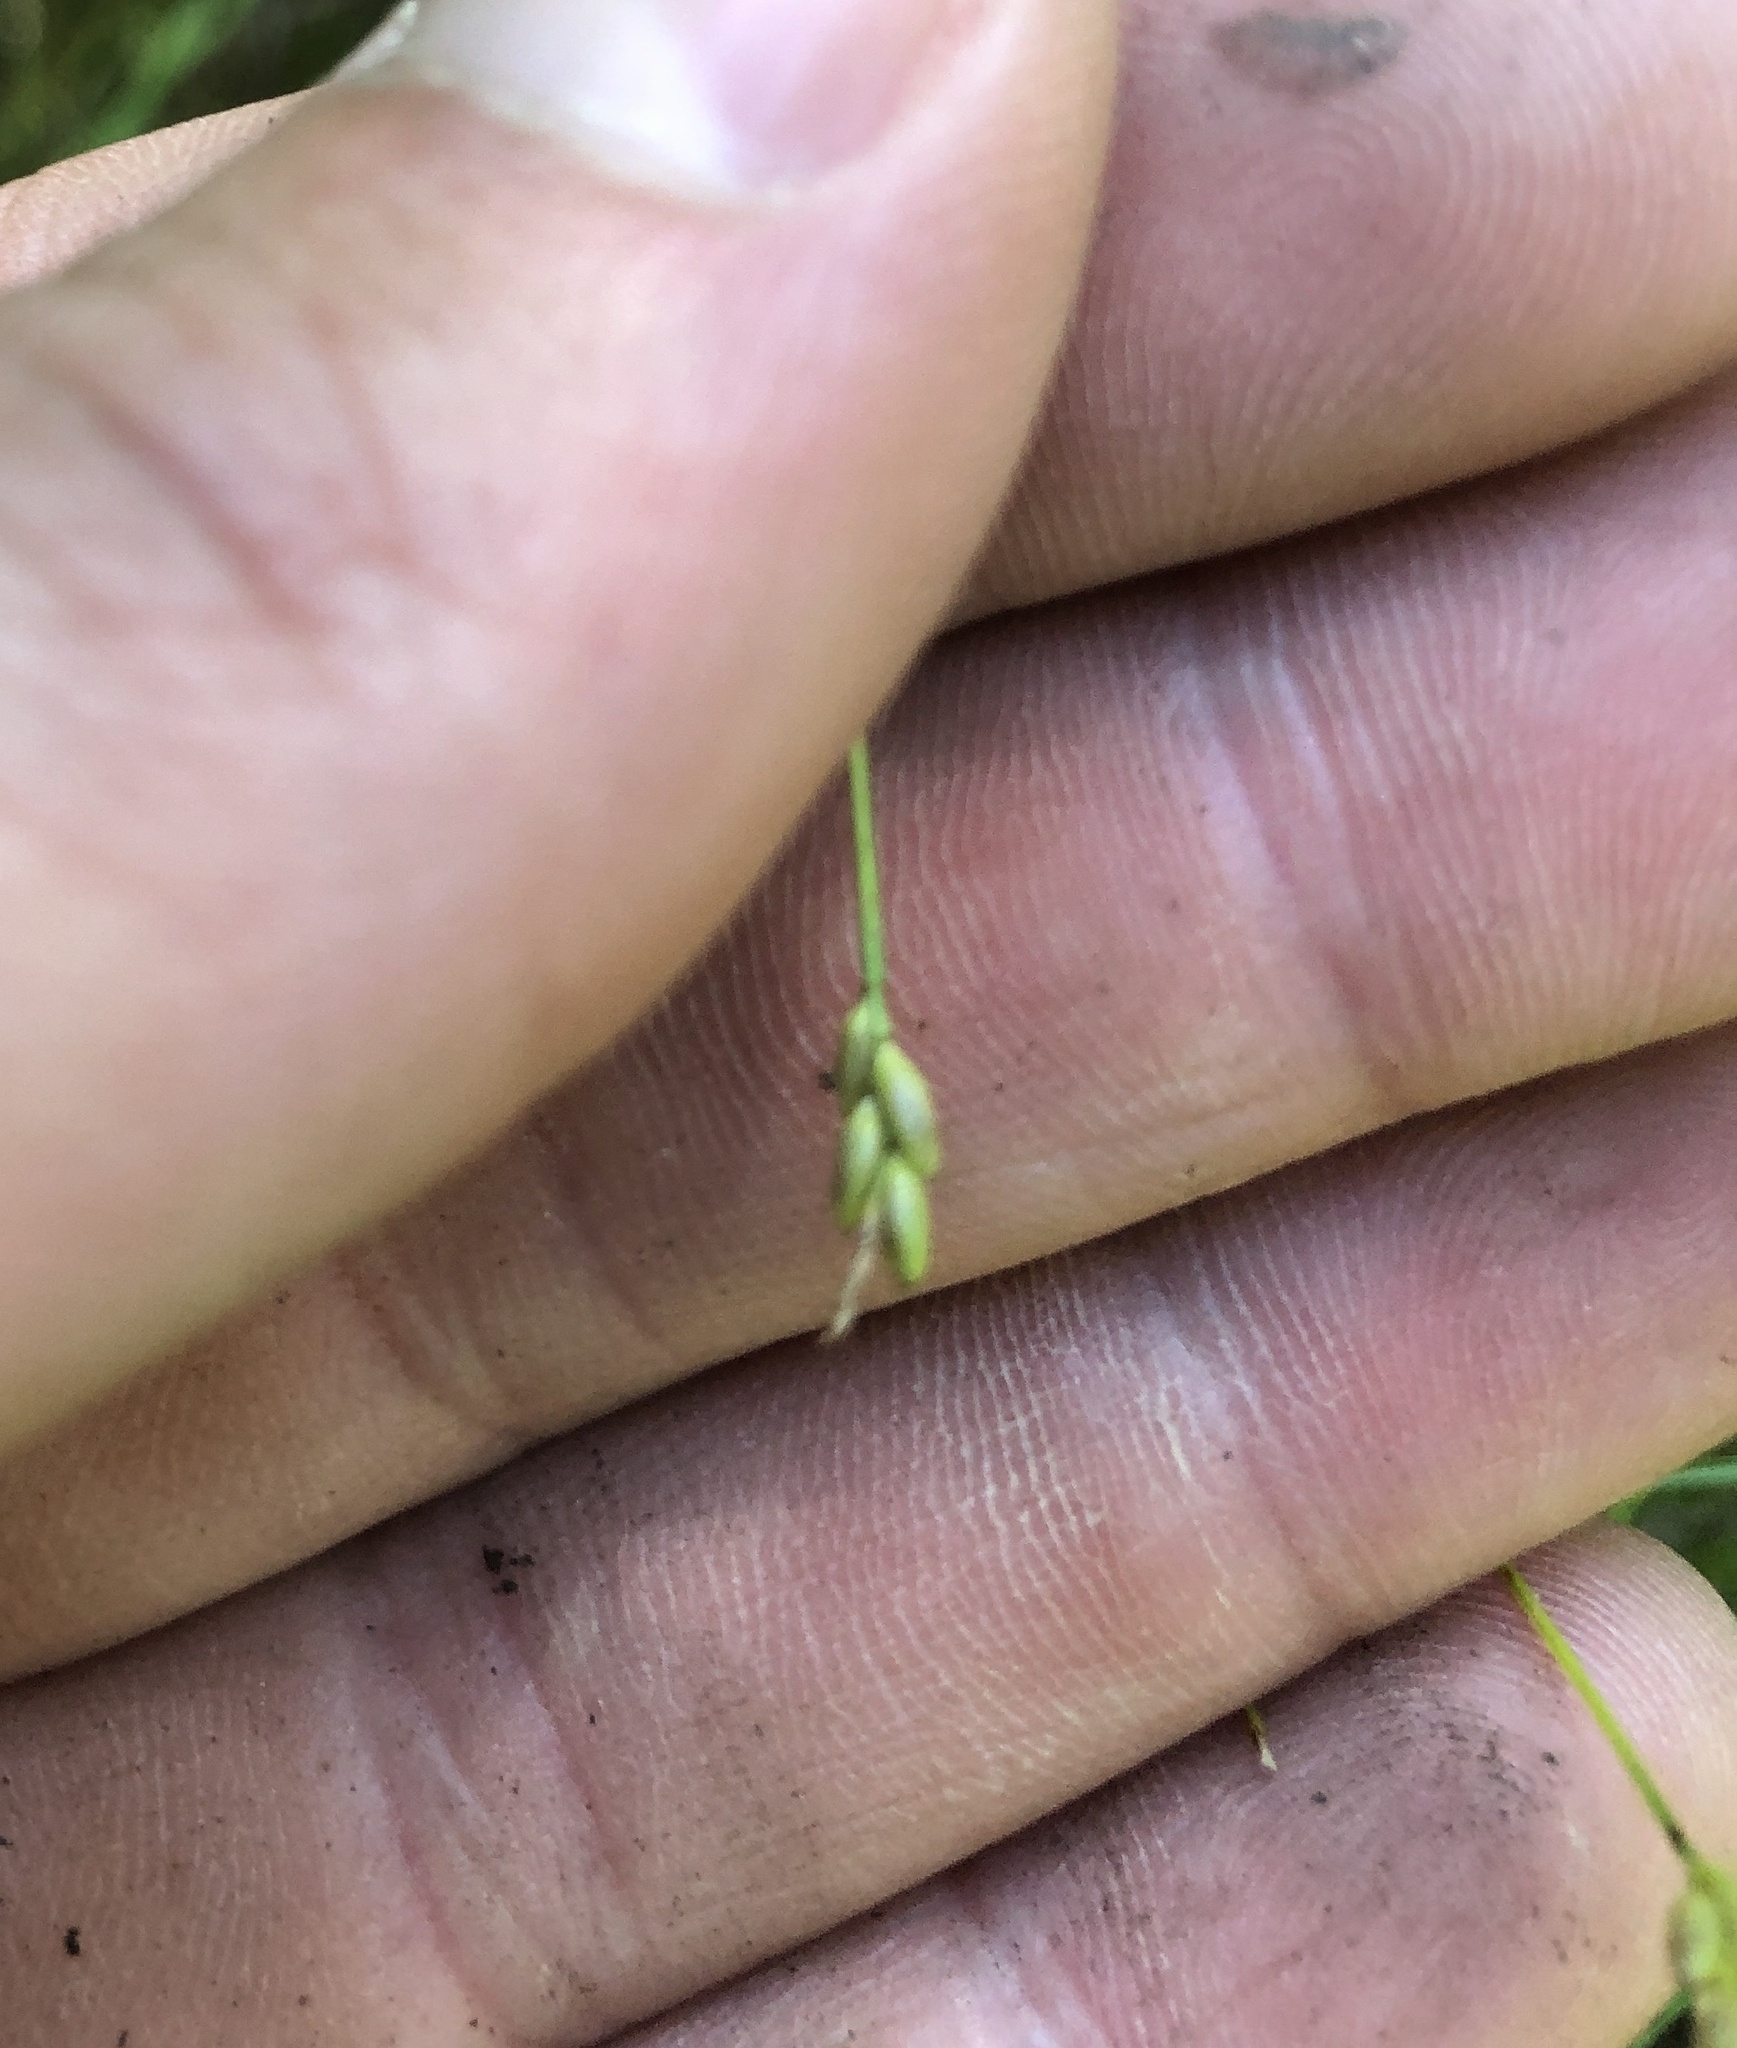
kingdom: Plantae
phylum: Tracheophyta
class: Liliopsida
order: Poales
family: Cyperaceae
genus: Carex
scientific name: Carex leptalea
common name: Bristly-stalked sedge
